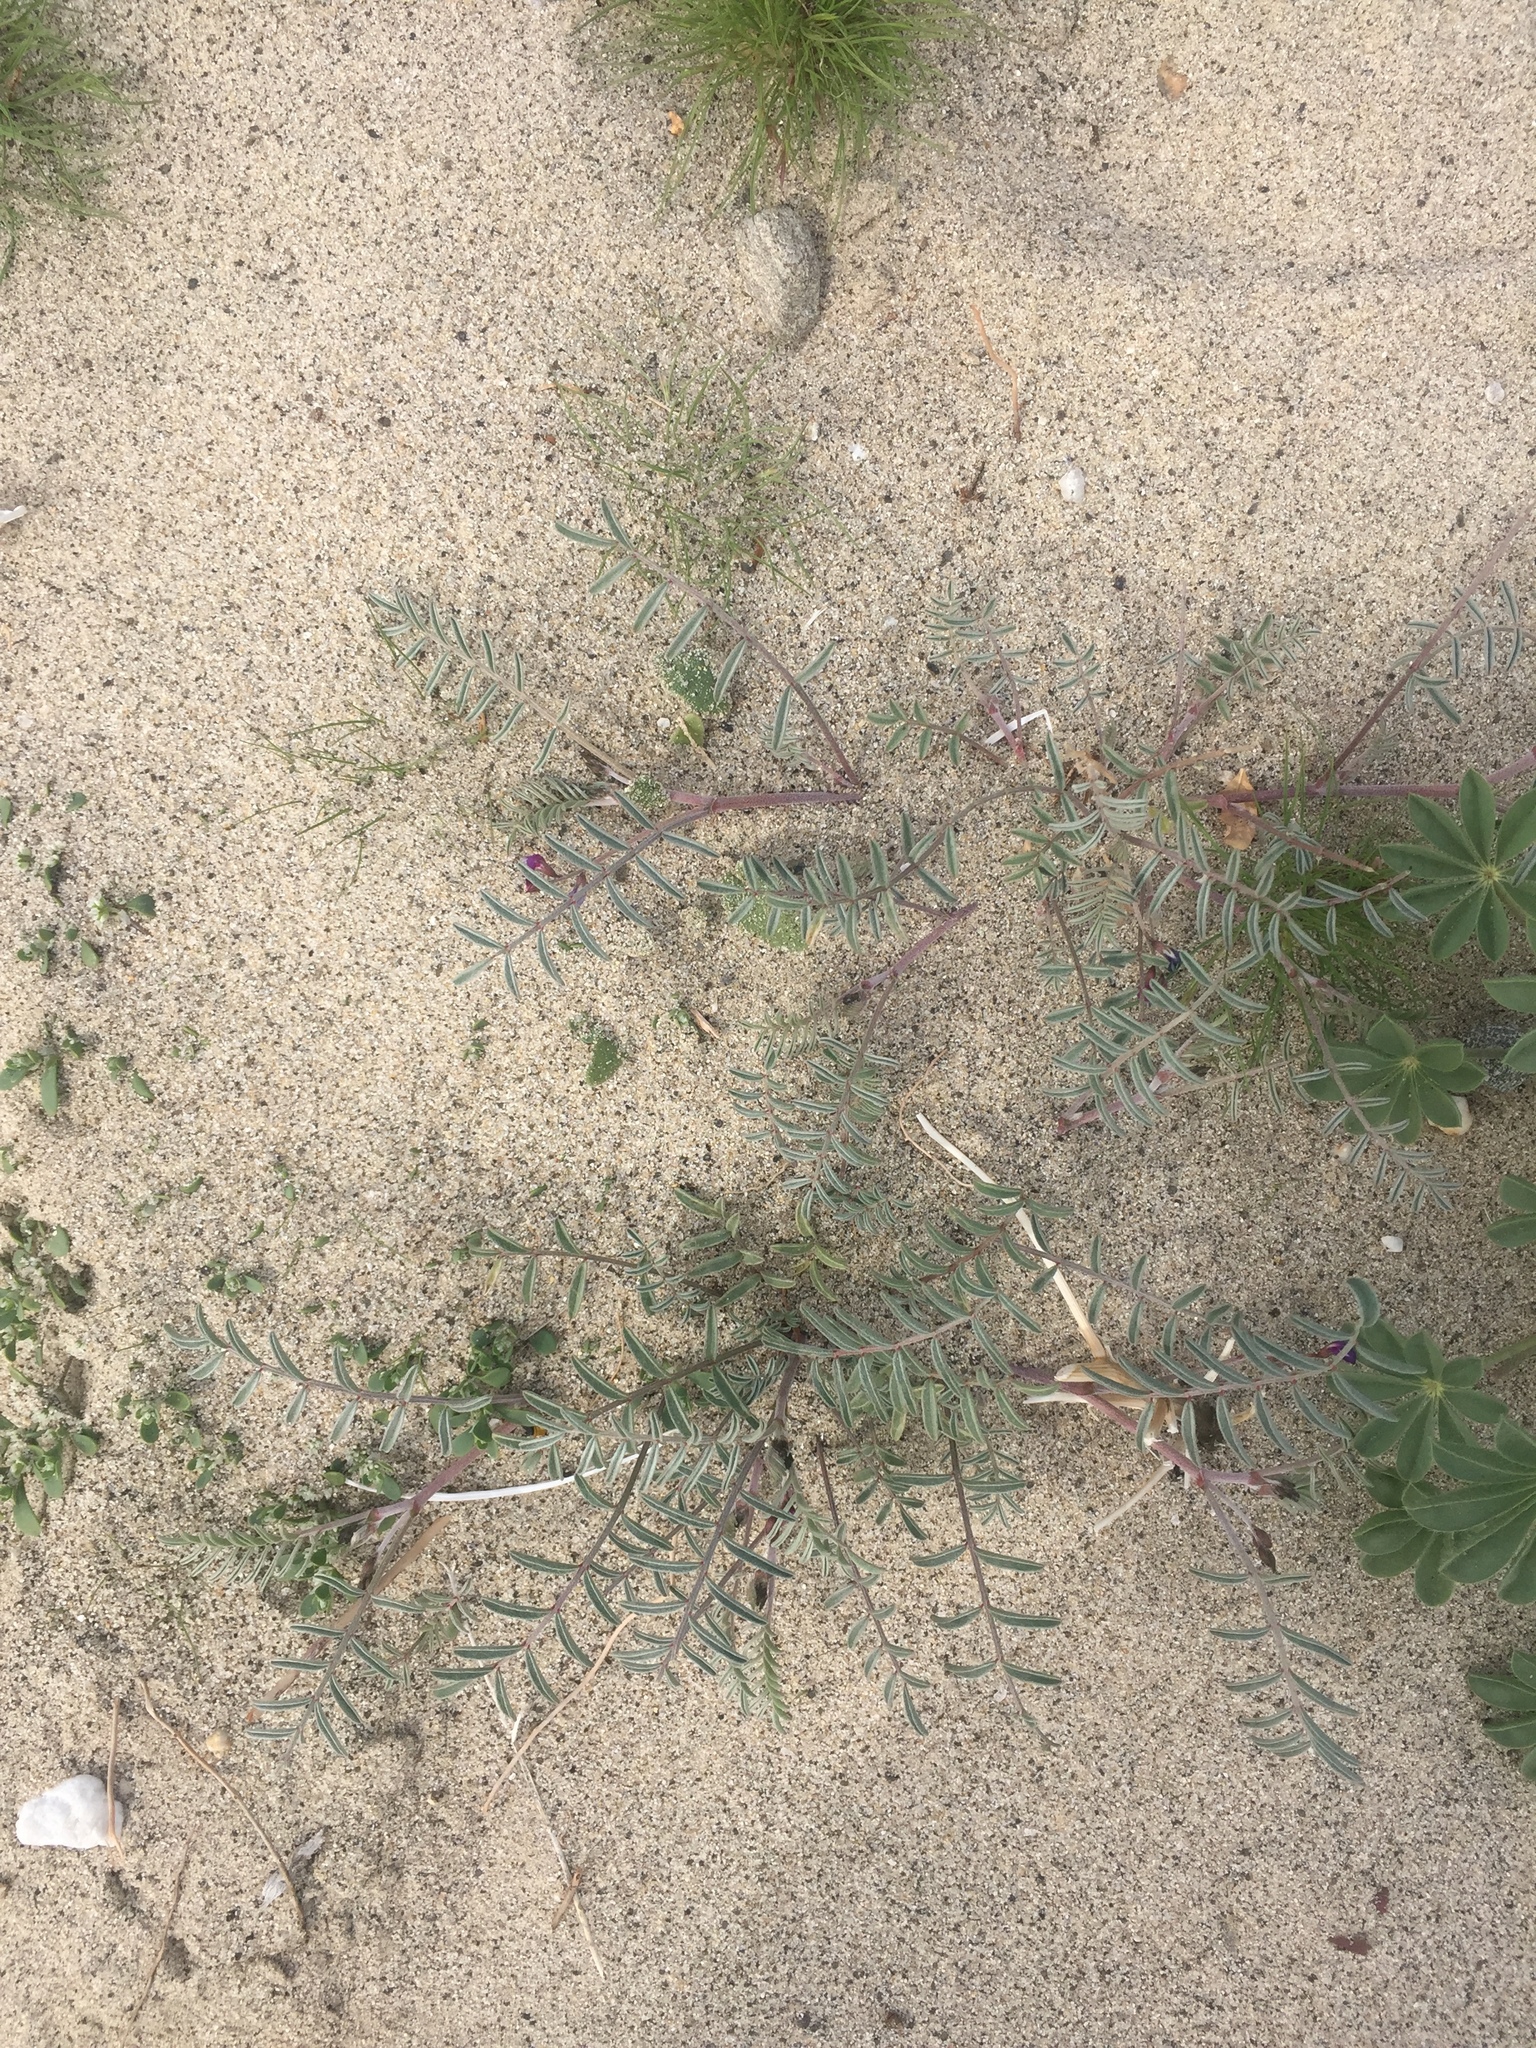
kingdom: Plantae
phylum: Tracheophyta
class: Magnoliopsida
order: Fabales
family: Fabaceae
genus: Astragalus
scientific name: Astragalus insularis
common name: Cedros milk-vetch
